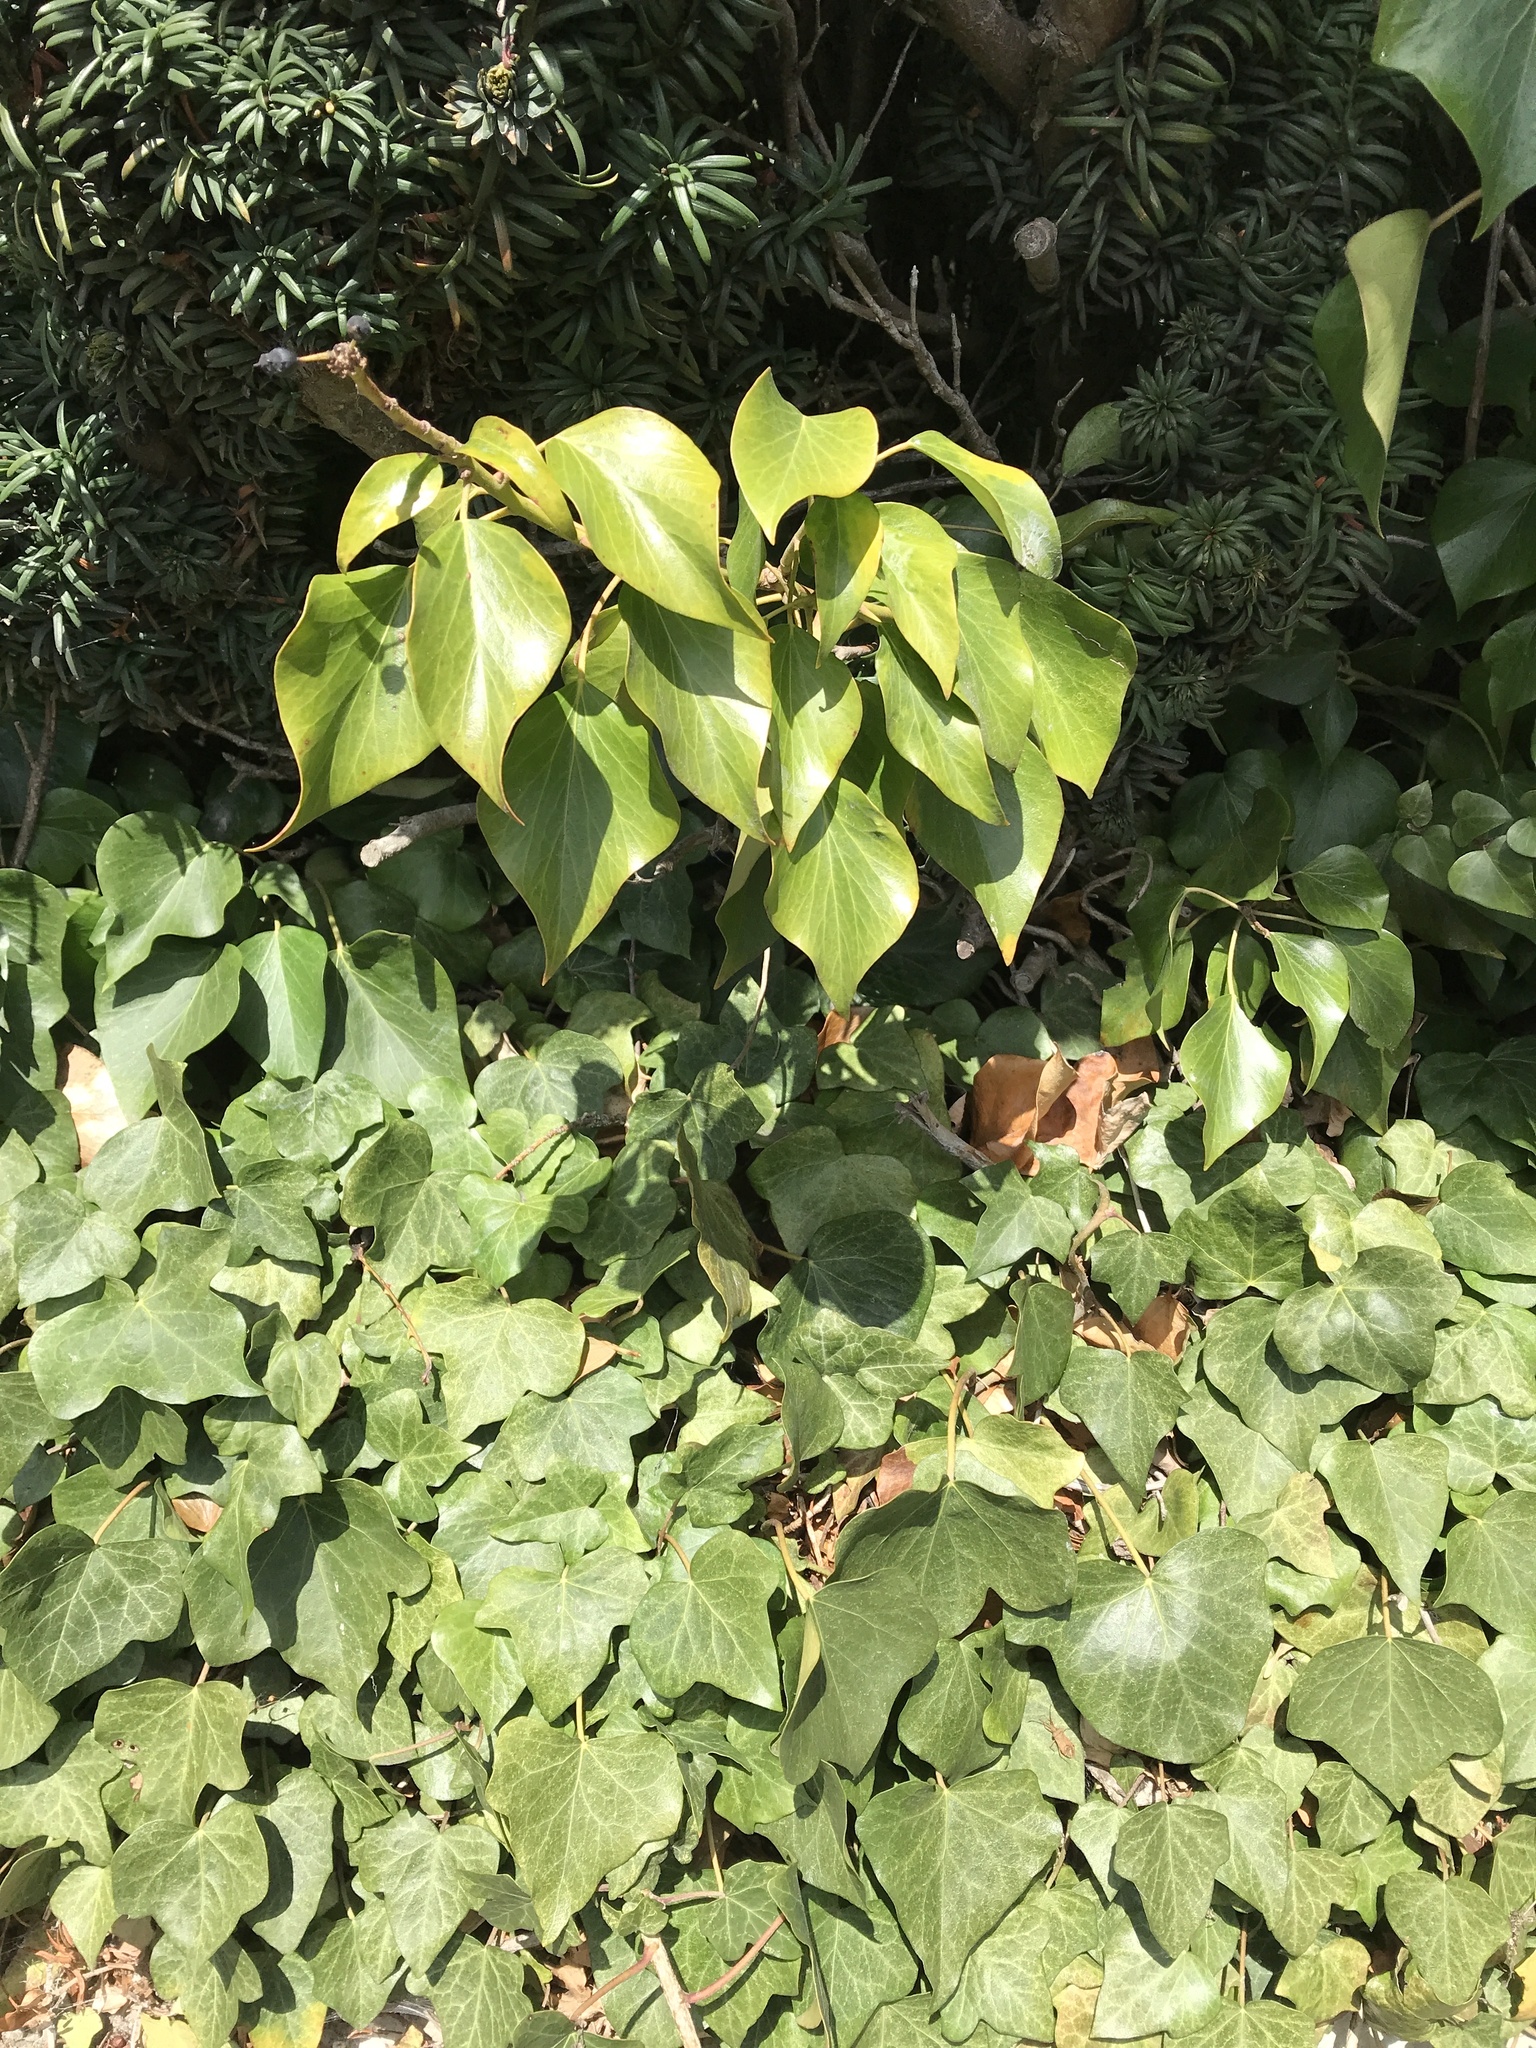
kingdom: Plantae
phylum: Tracheophyta
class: Magnoliopsida
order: Apiales
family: Araliaceae
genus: Hedera
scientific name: Hedera helix
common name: Ivy
